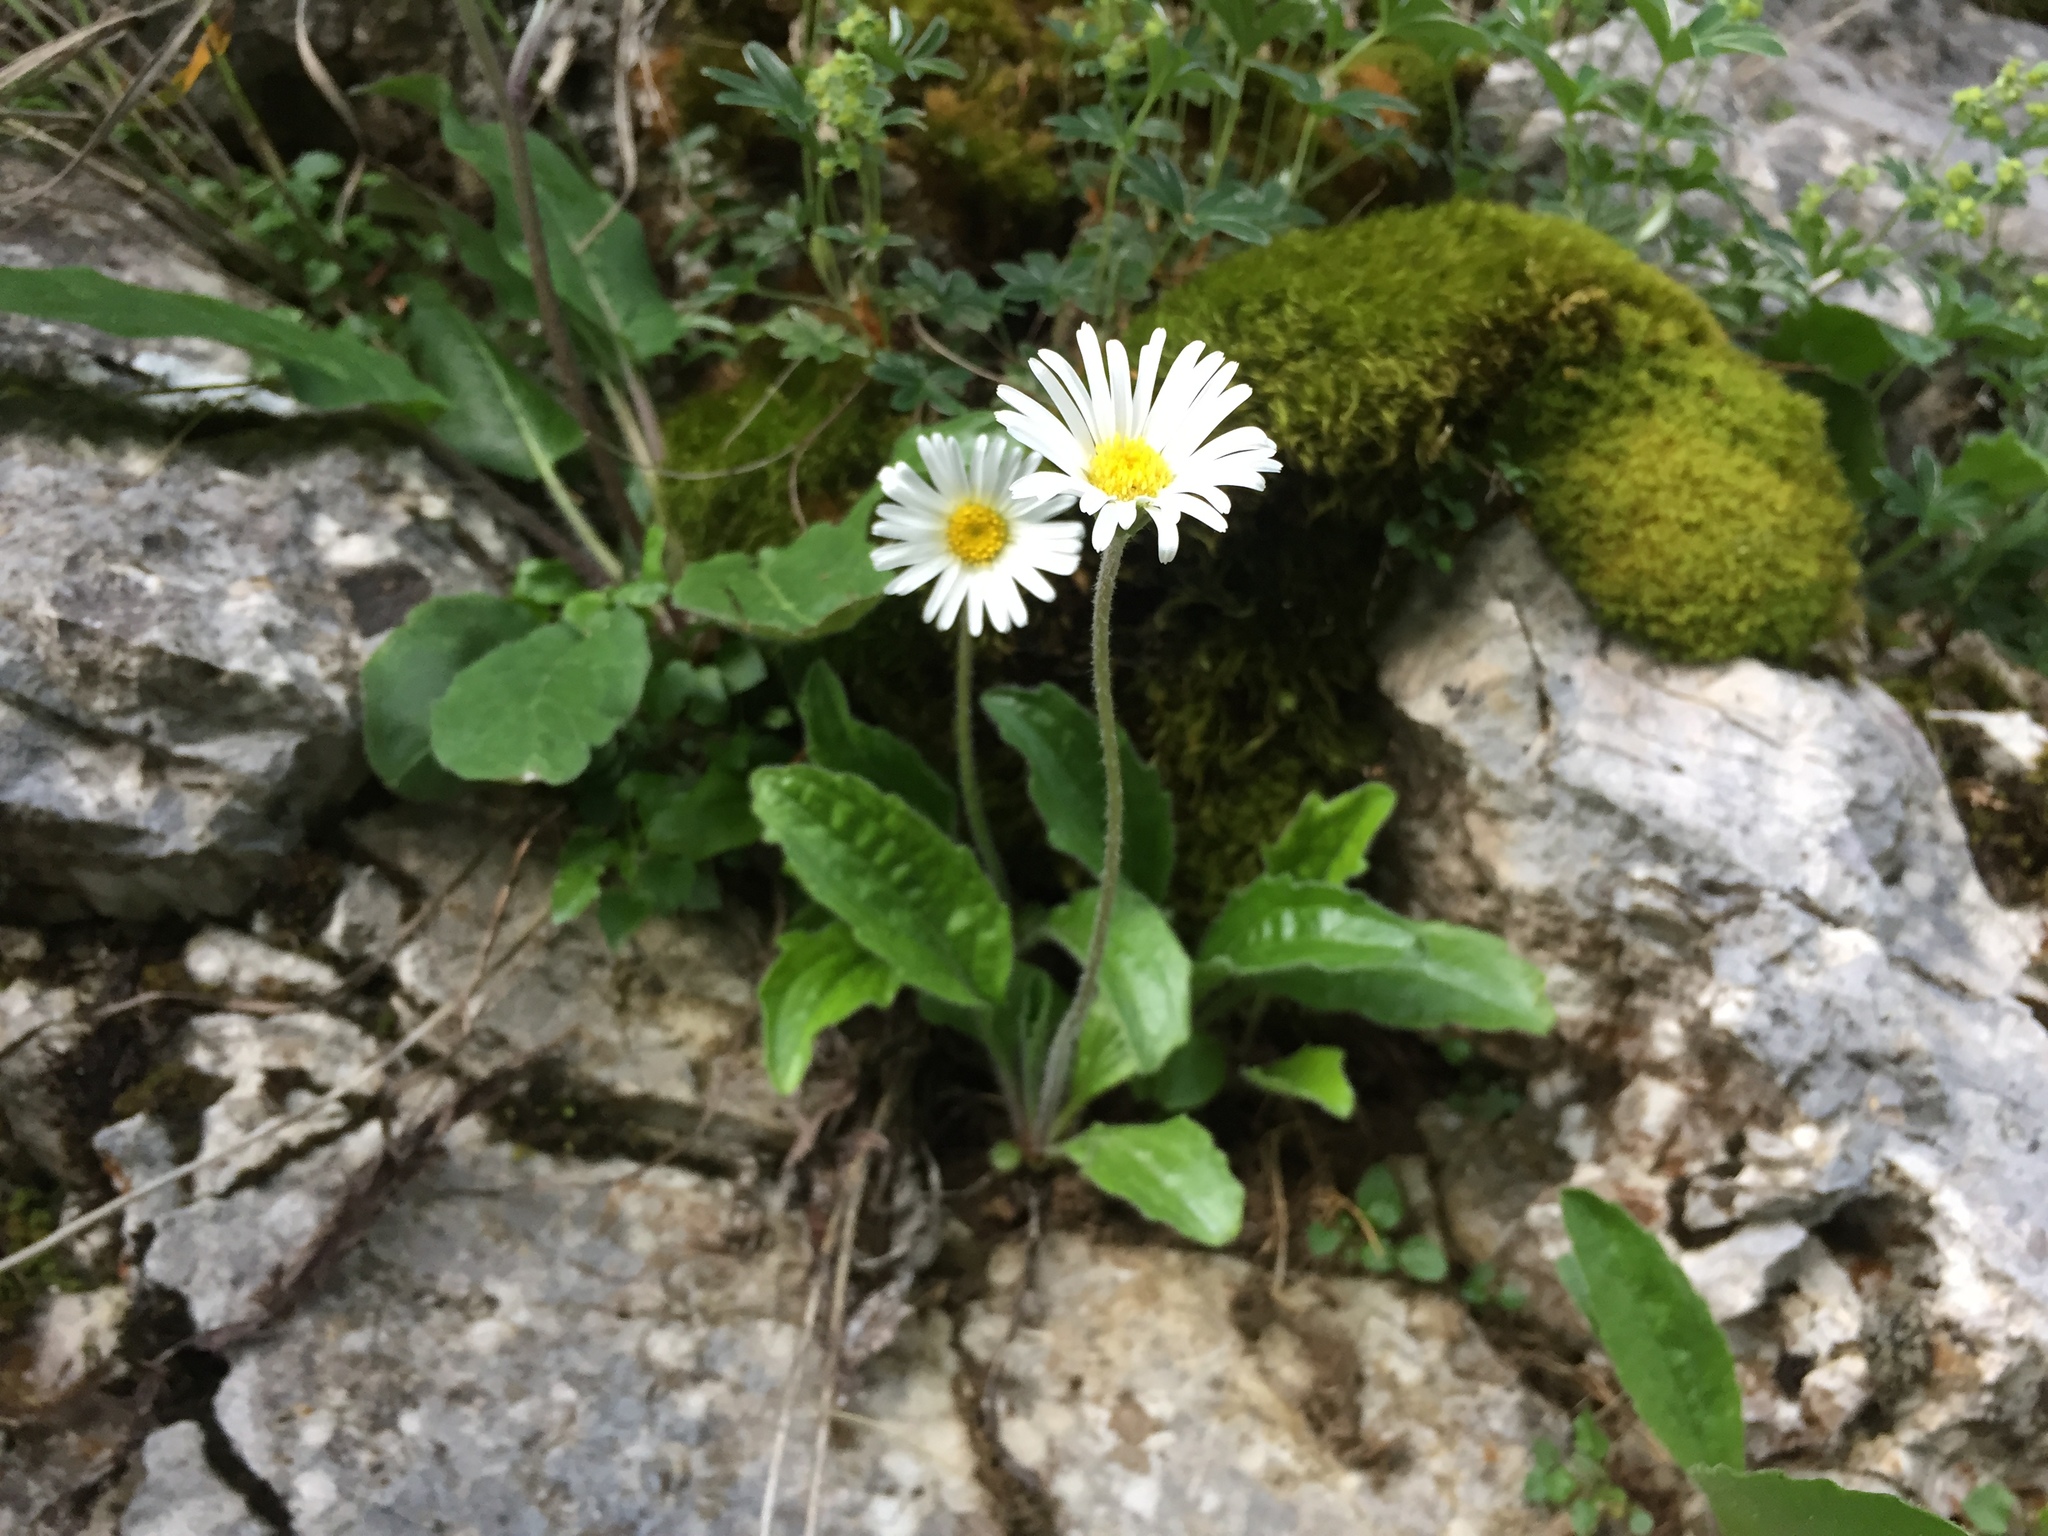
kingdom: Plantae
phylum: Tracheophyta
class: Magnoliopsida
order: Asterales
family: Asteraceae
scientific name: Asteraceae
